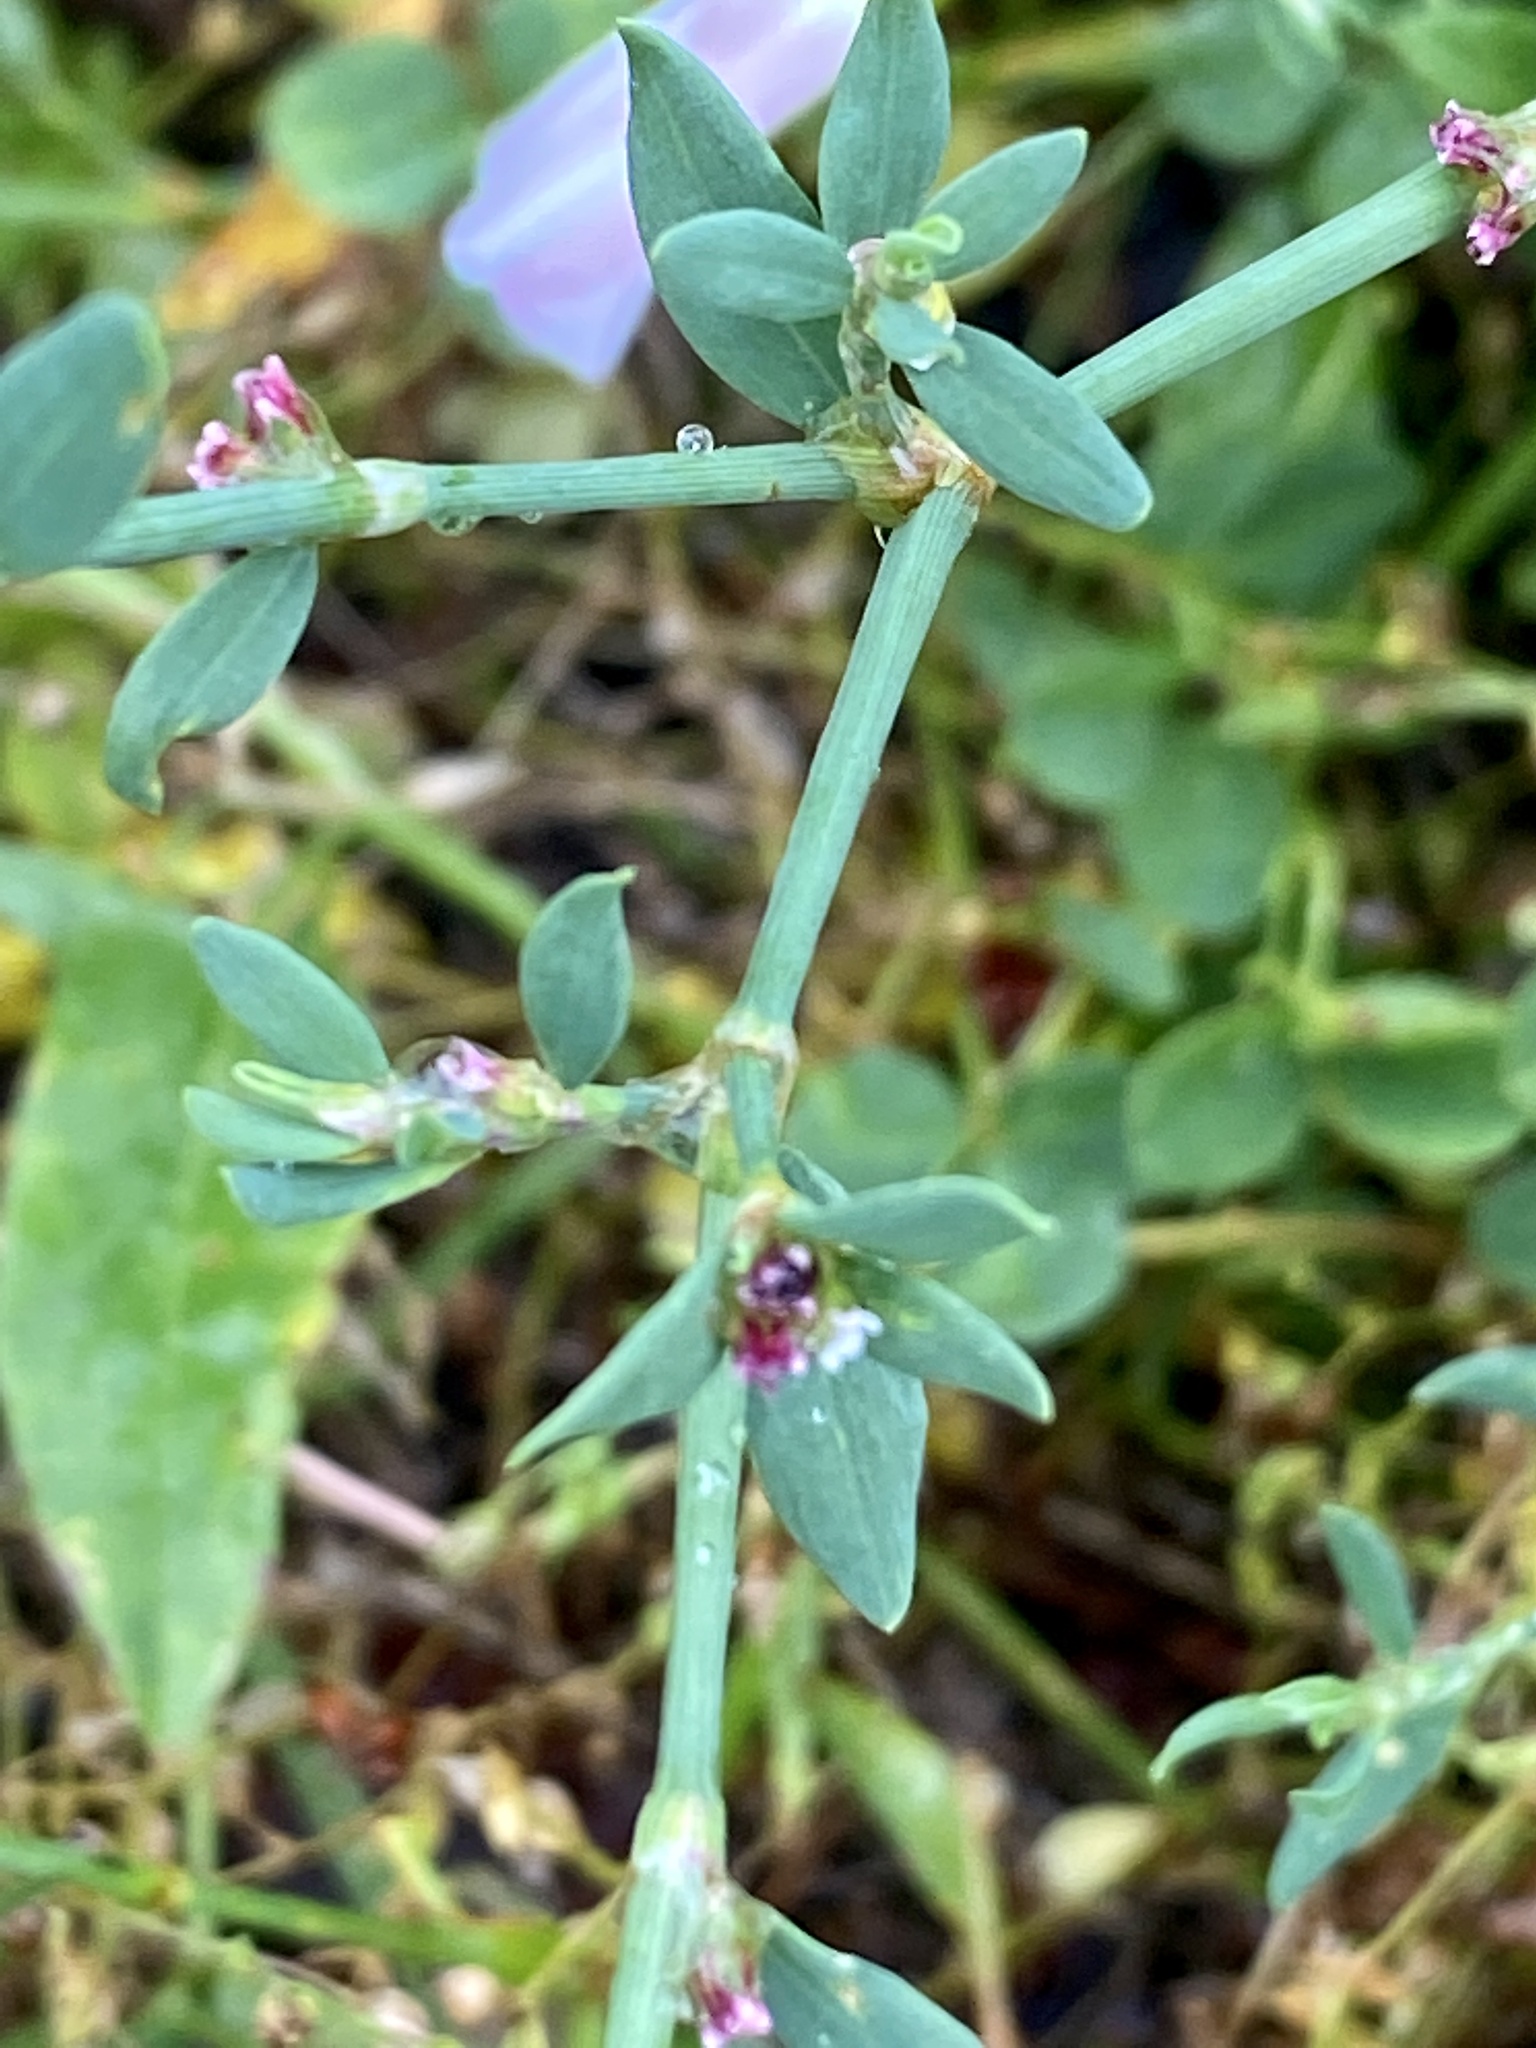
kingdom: Plantae
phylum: Tracheophyta
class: Magnoliopsida
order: Caryophyllales
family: Polygonaceae
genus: Polygonum
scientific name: Polygonum aviculare
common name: Prostrate knotweed
